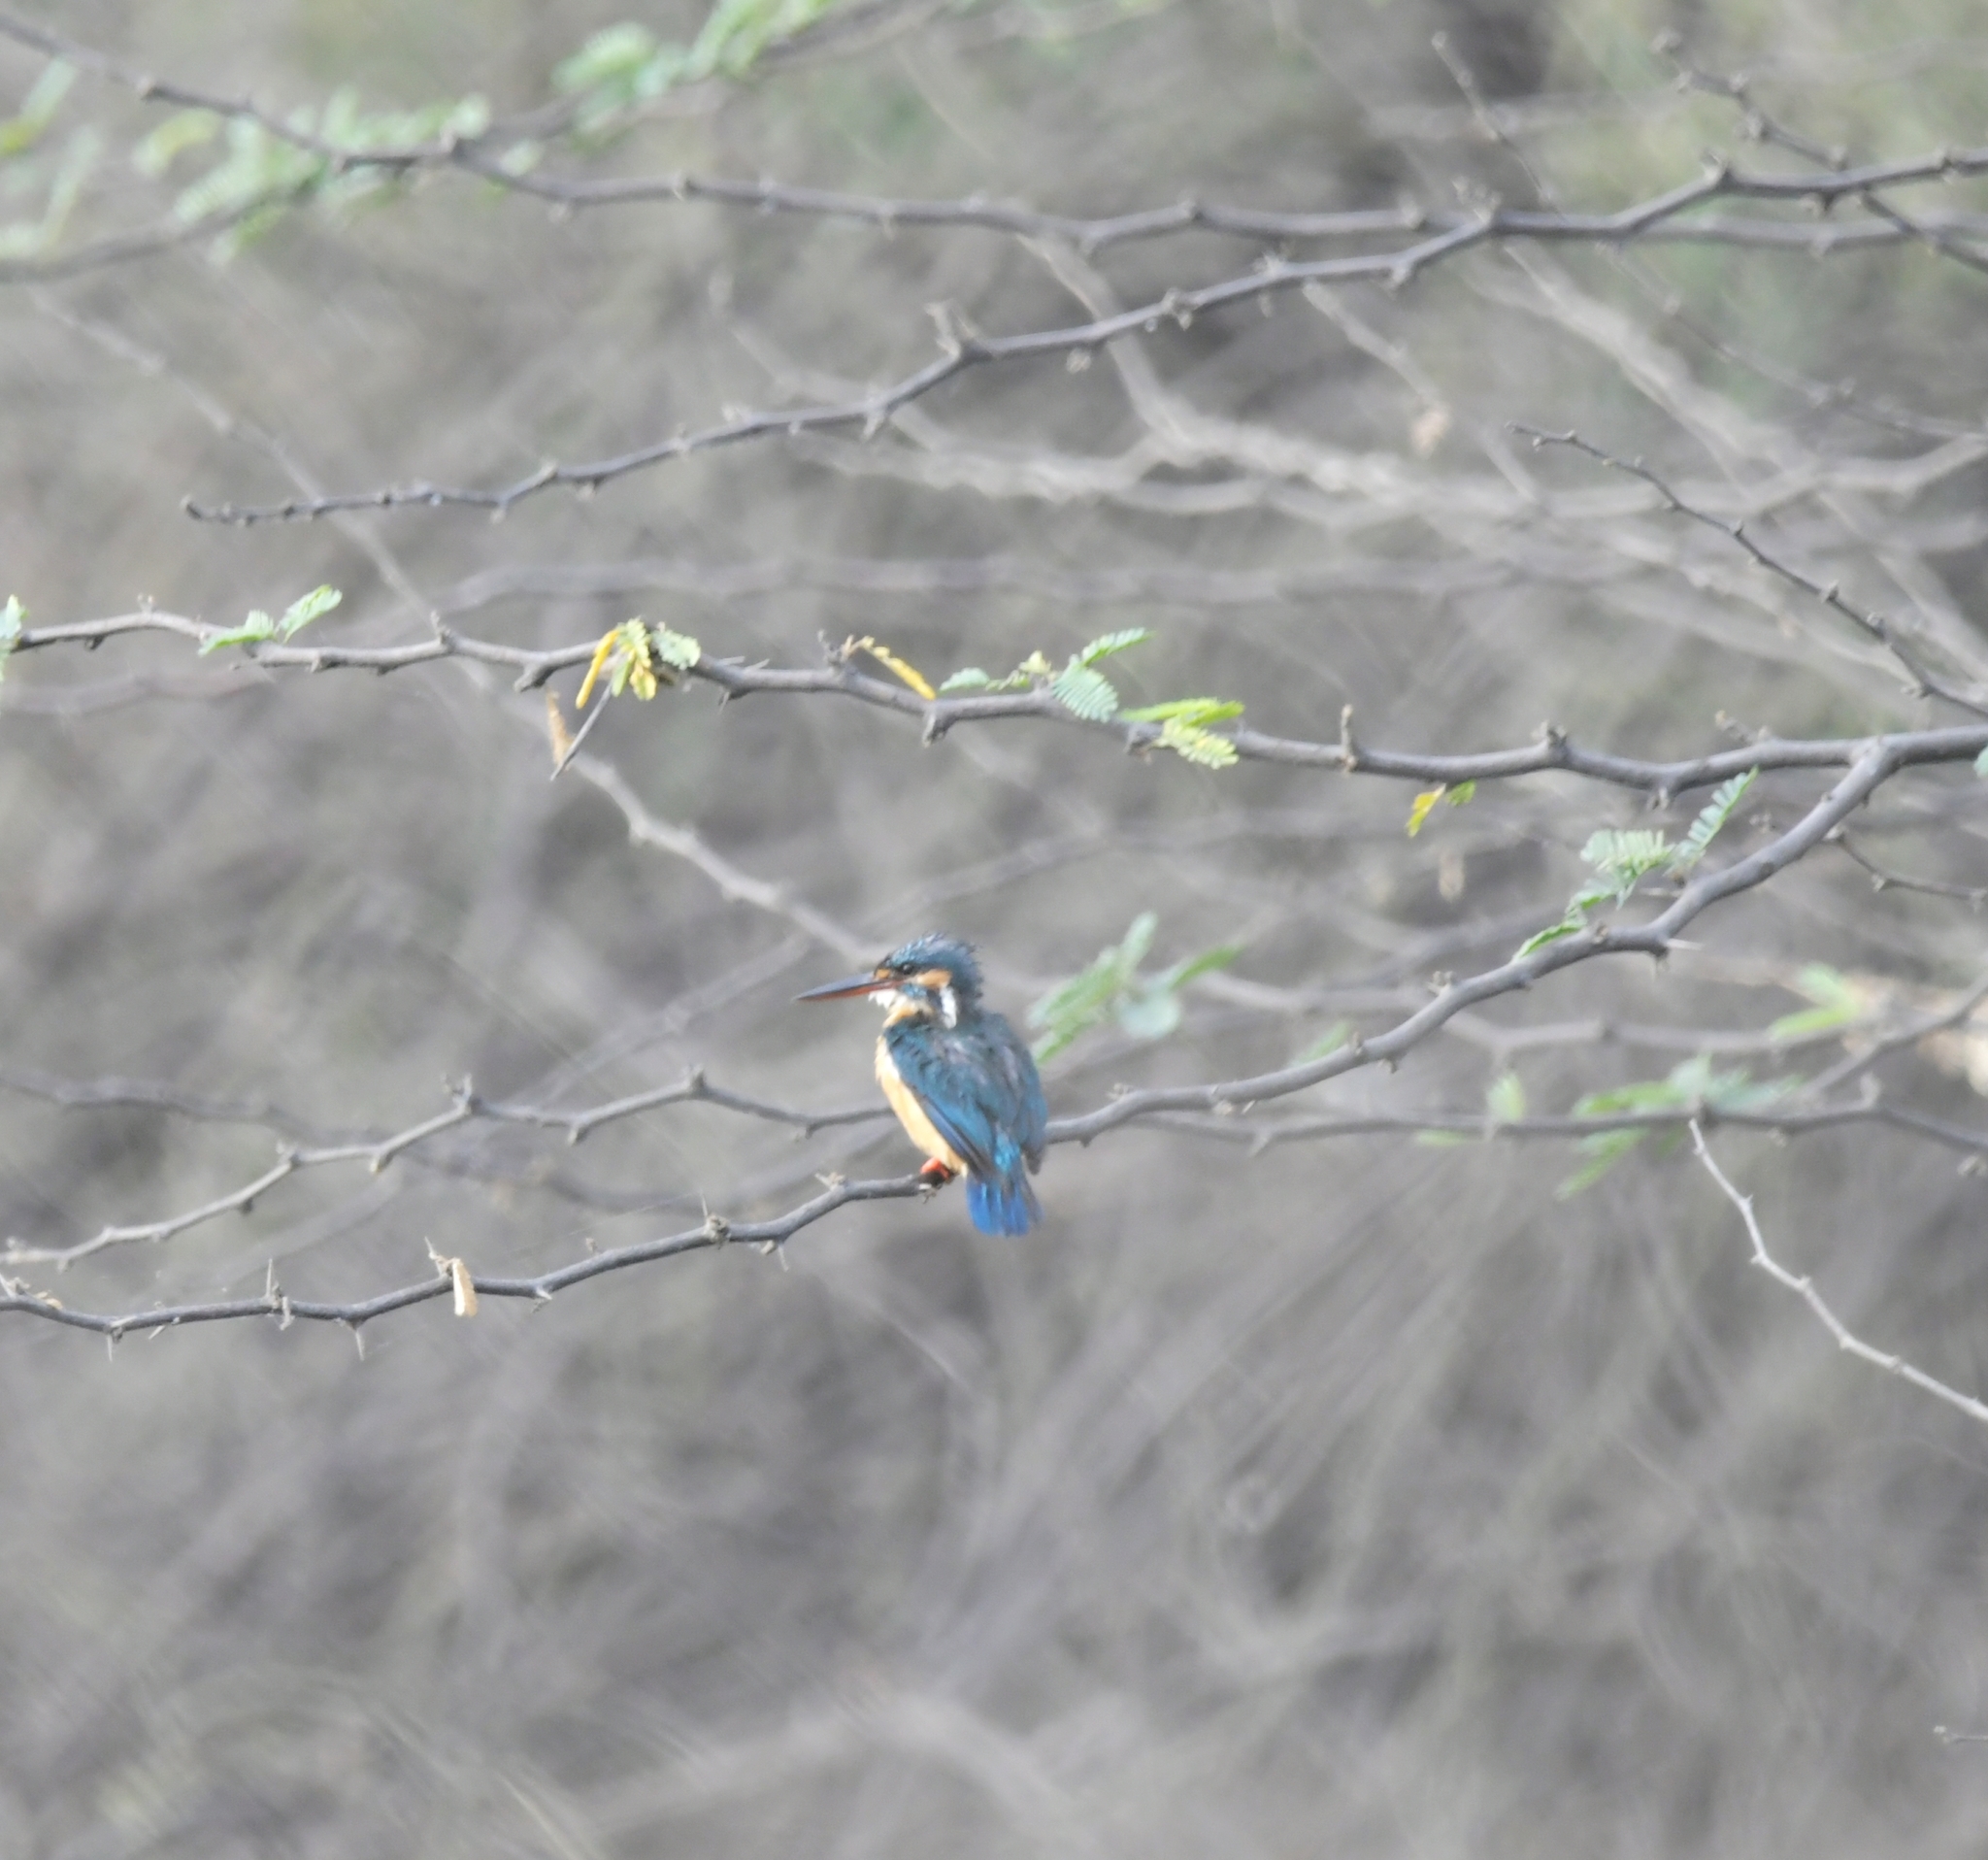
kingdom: Animalia
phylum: Chordata
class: Aves
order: Coraciiformes
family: Alcedinidae
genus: Alcedo
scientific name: Alcedo atthis
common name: Common kingfisher
